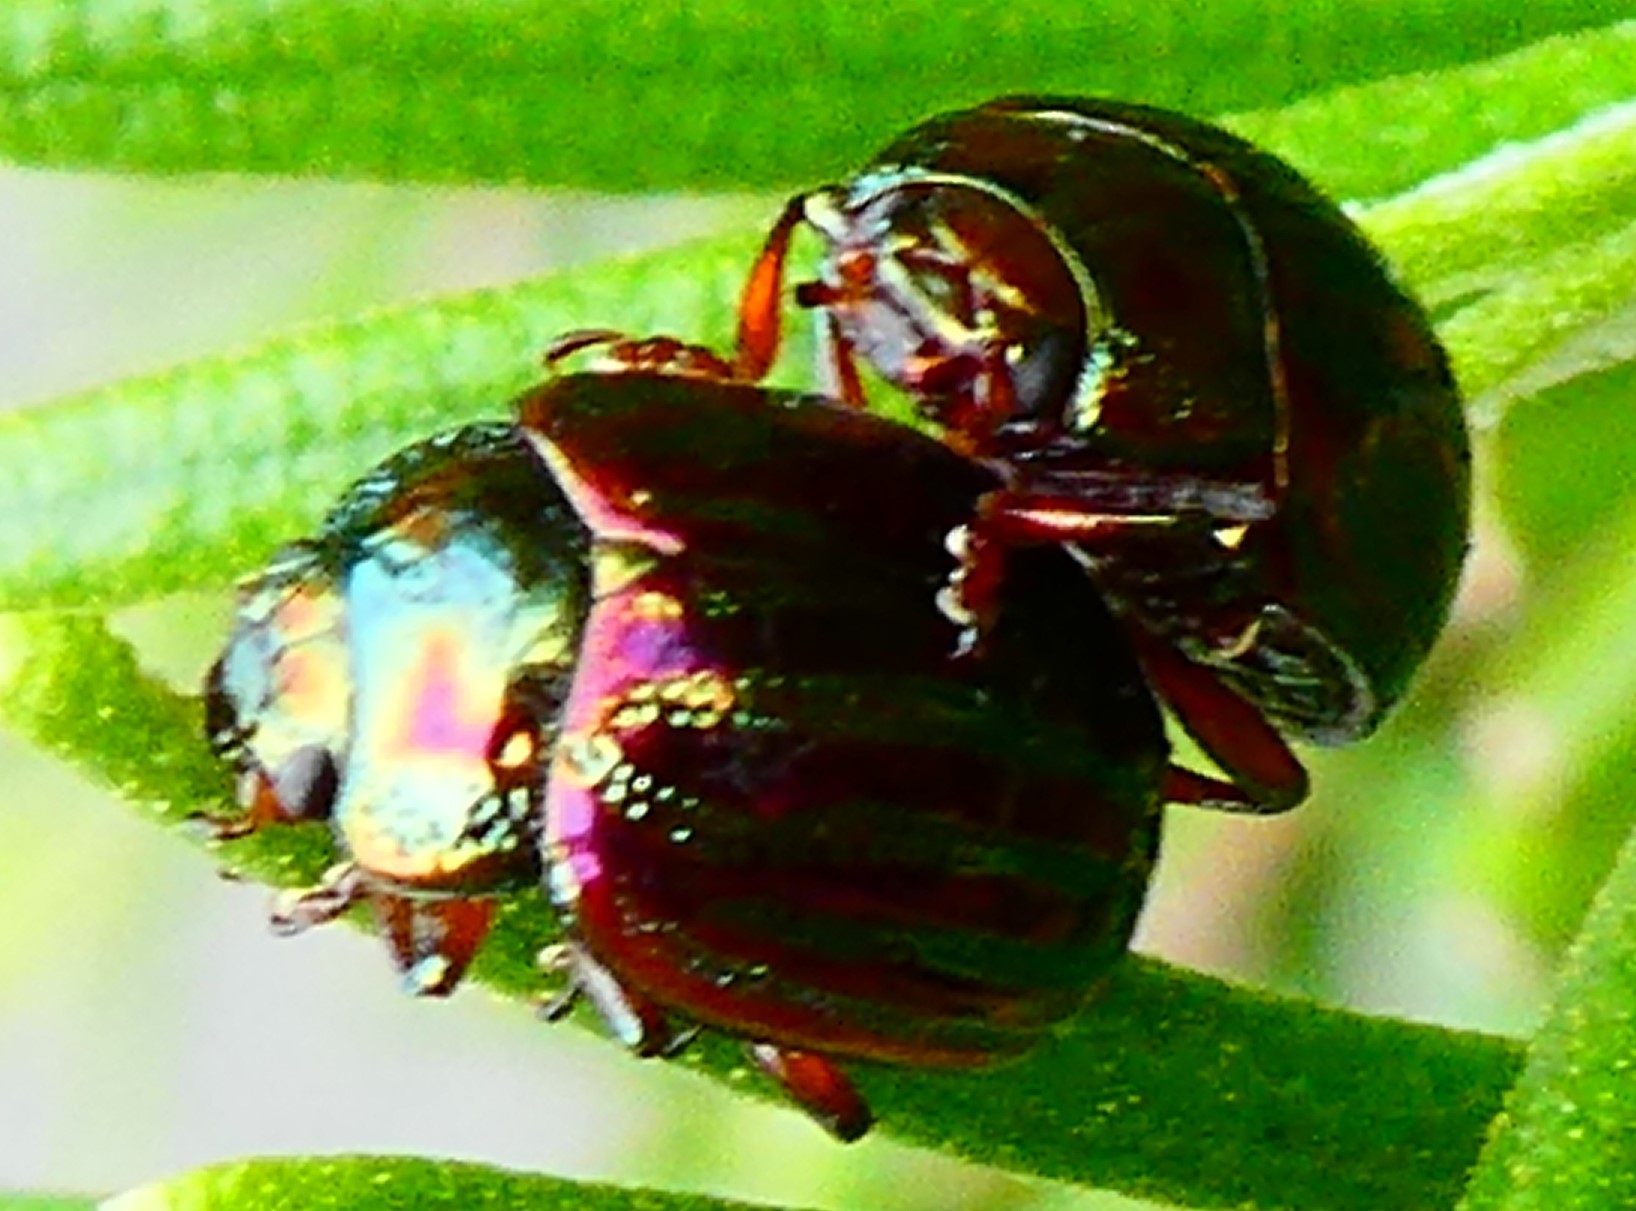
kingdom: Animalia
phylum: Arthropoda
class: Insecta
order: Coleoptera
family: Chrysomelidae
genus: Chrysolina
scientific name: Chrysolina americana
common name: Rosemary beetle
